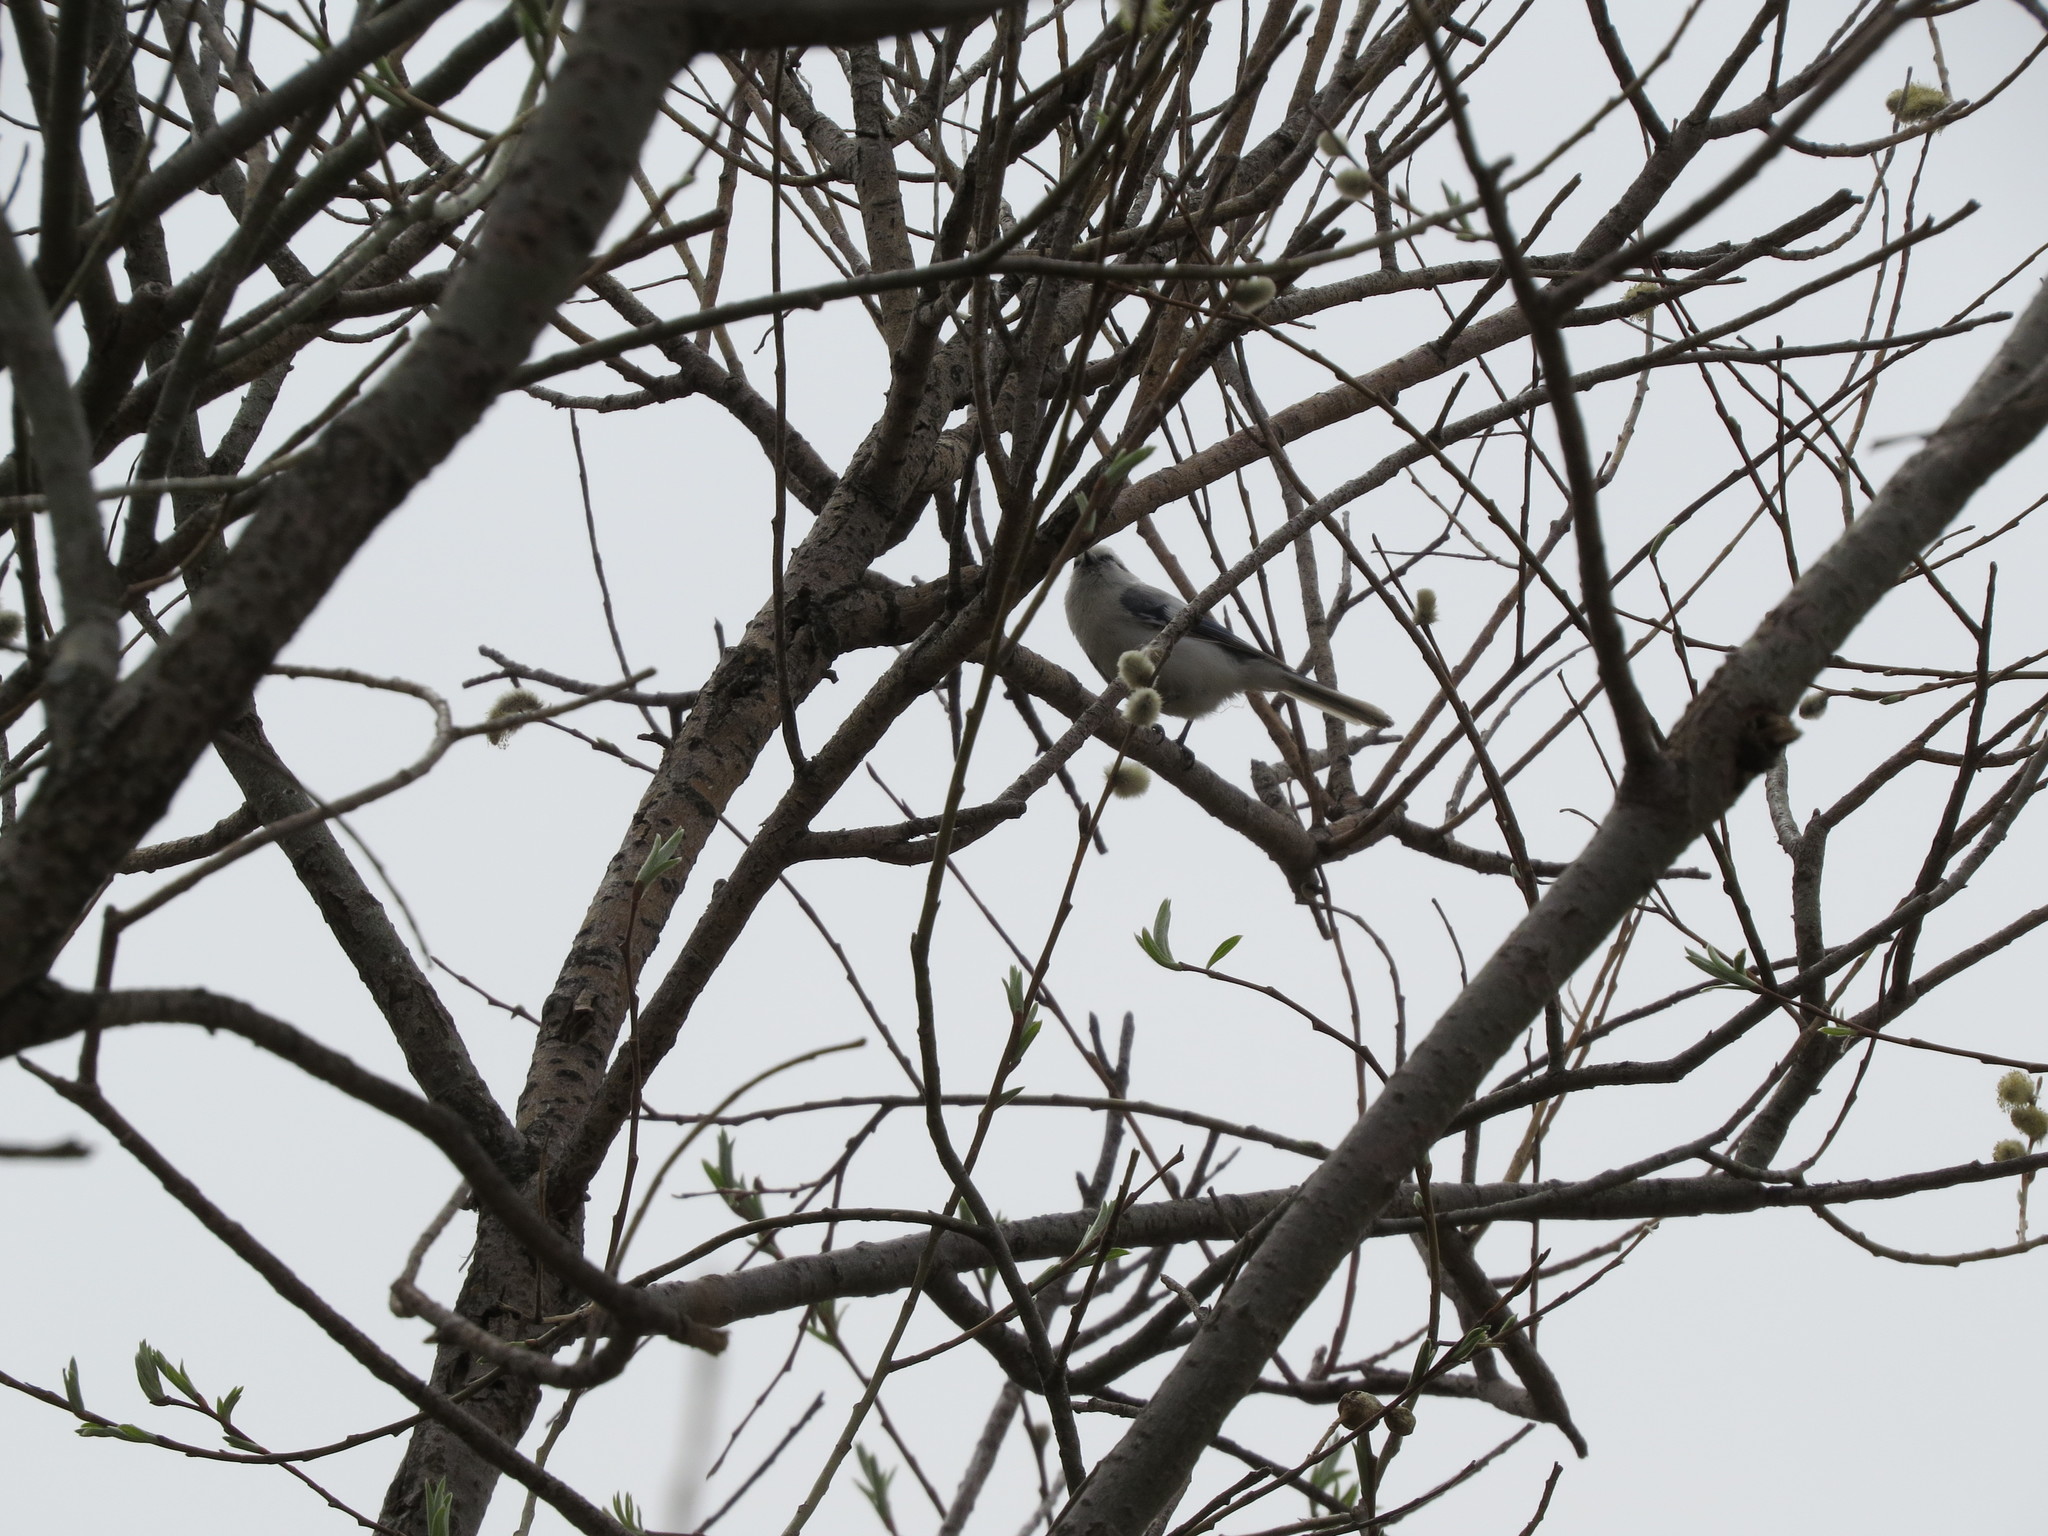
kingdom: Animalia
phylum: Chordata
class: Aves
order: Passeriformes
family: Paridae
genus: Cyanistes
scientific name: Cyanistes cyanus
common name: Azure tit
